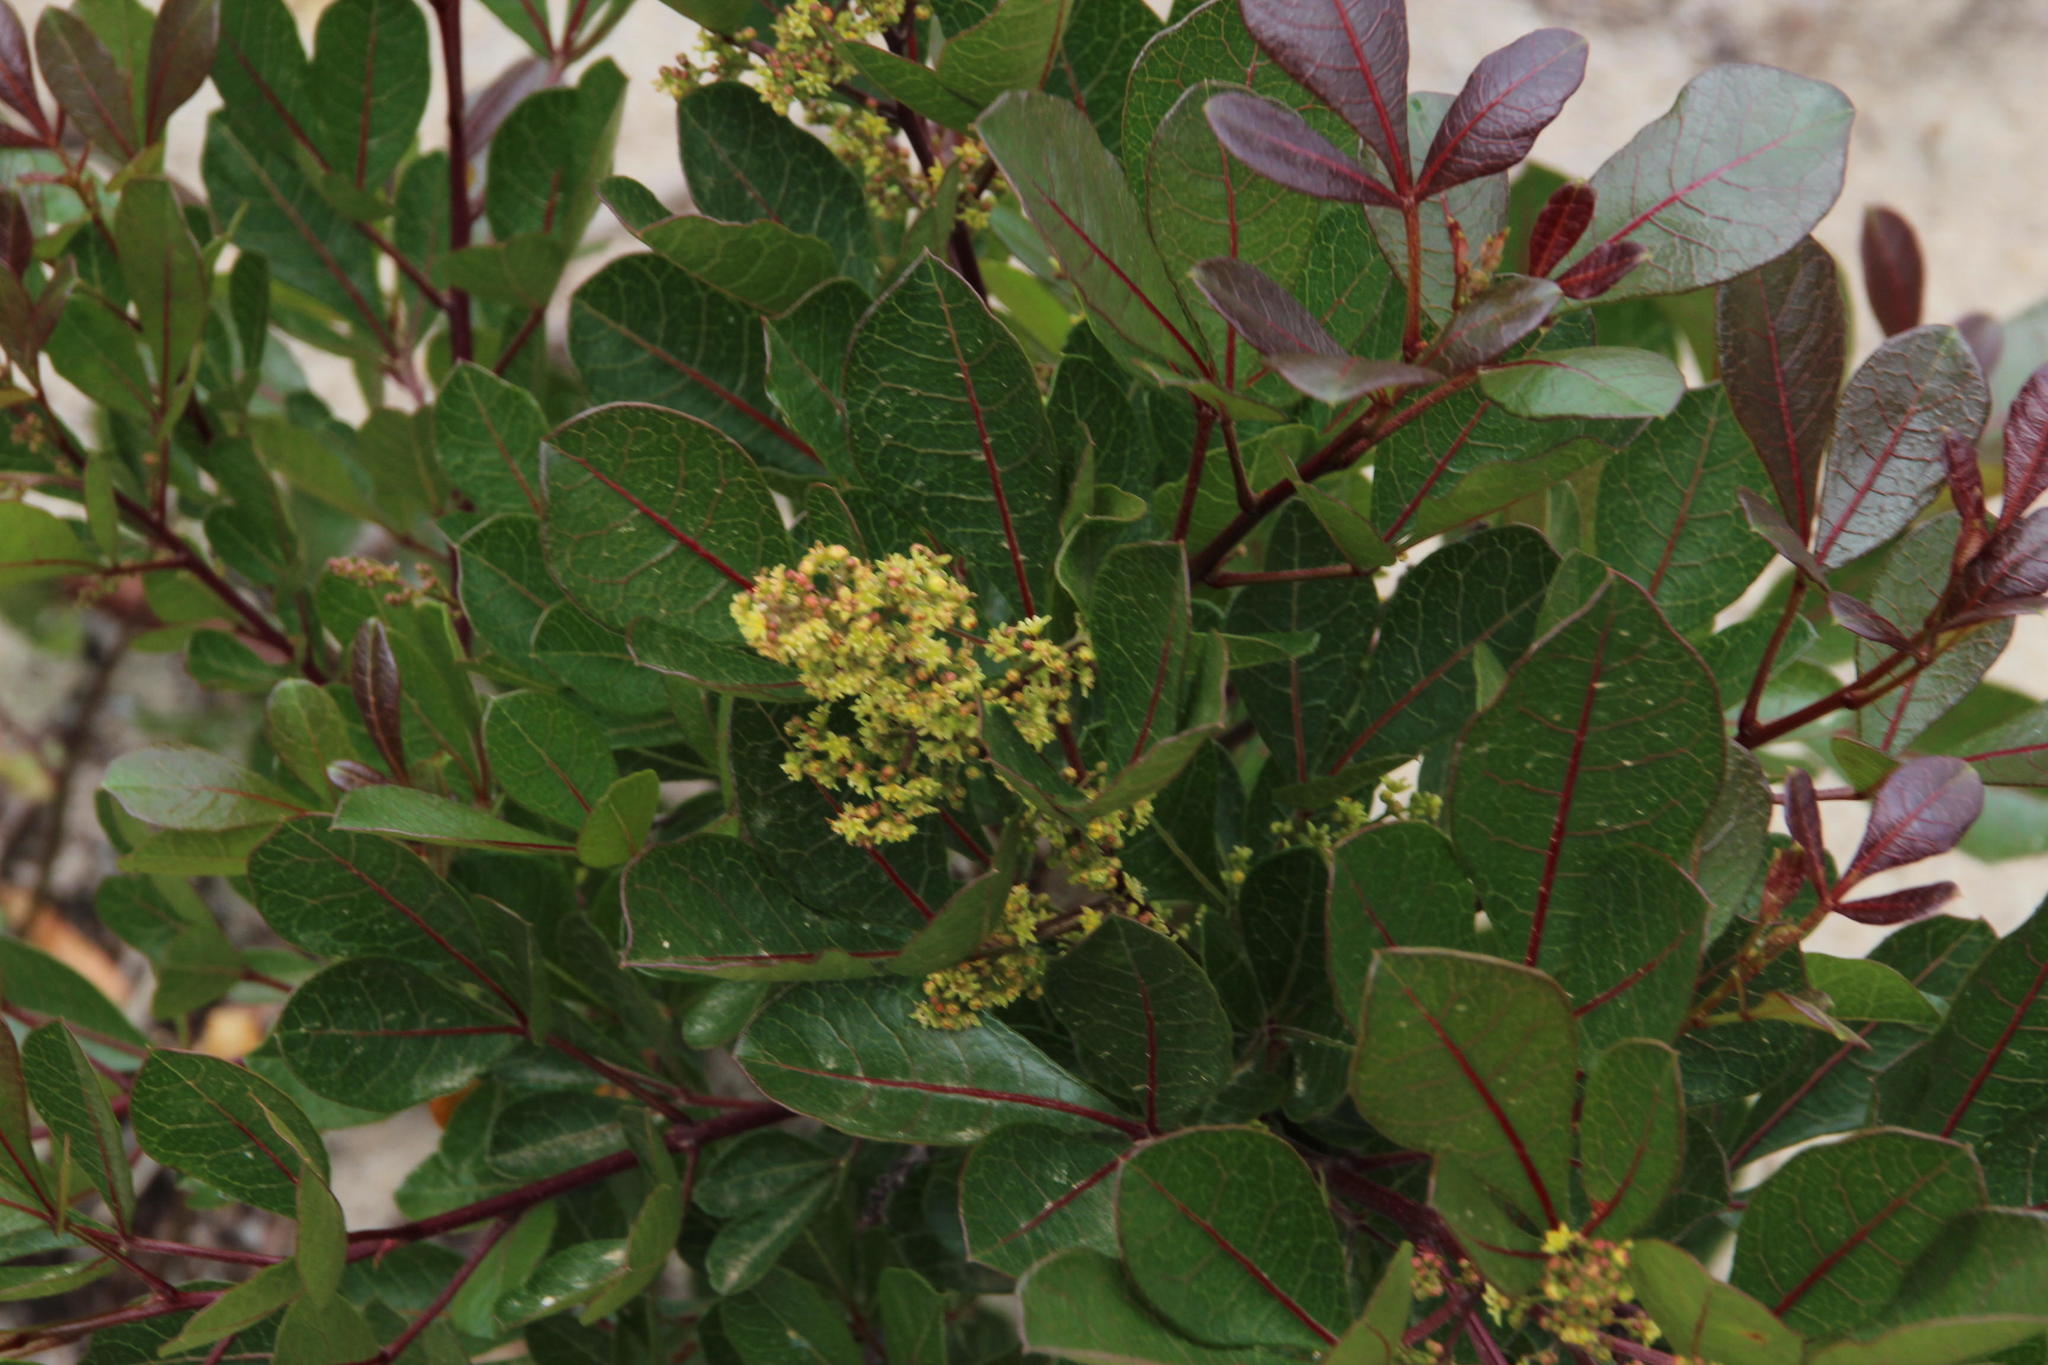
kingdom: Plantae
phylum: Tracheophyta
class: Magnoliopsida
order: Sapindales
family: Anacardiaceae
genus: Searsia
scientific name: Searsia laevigata
